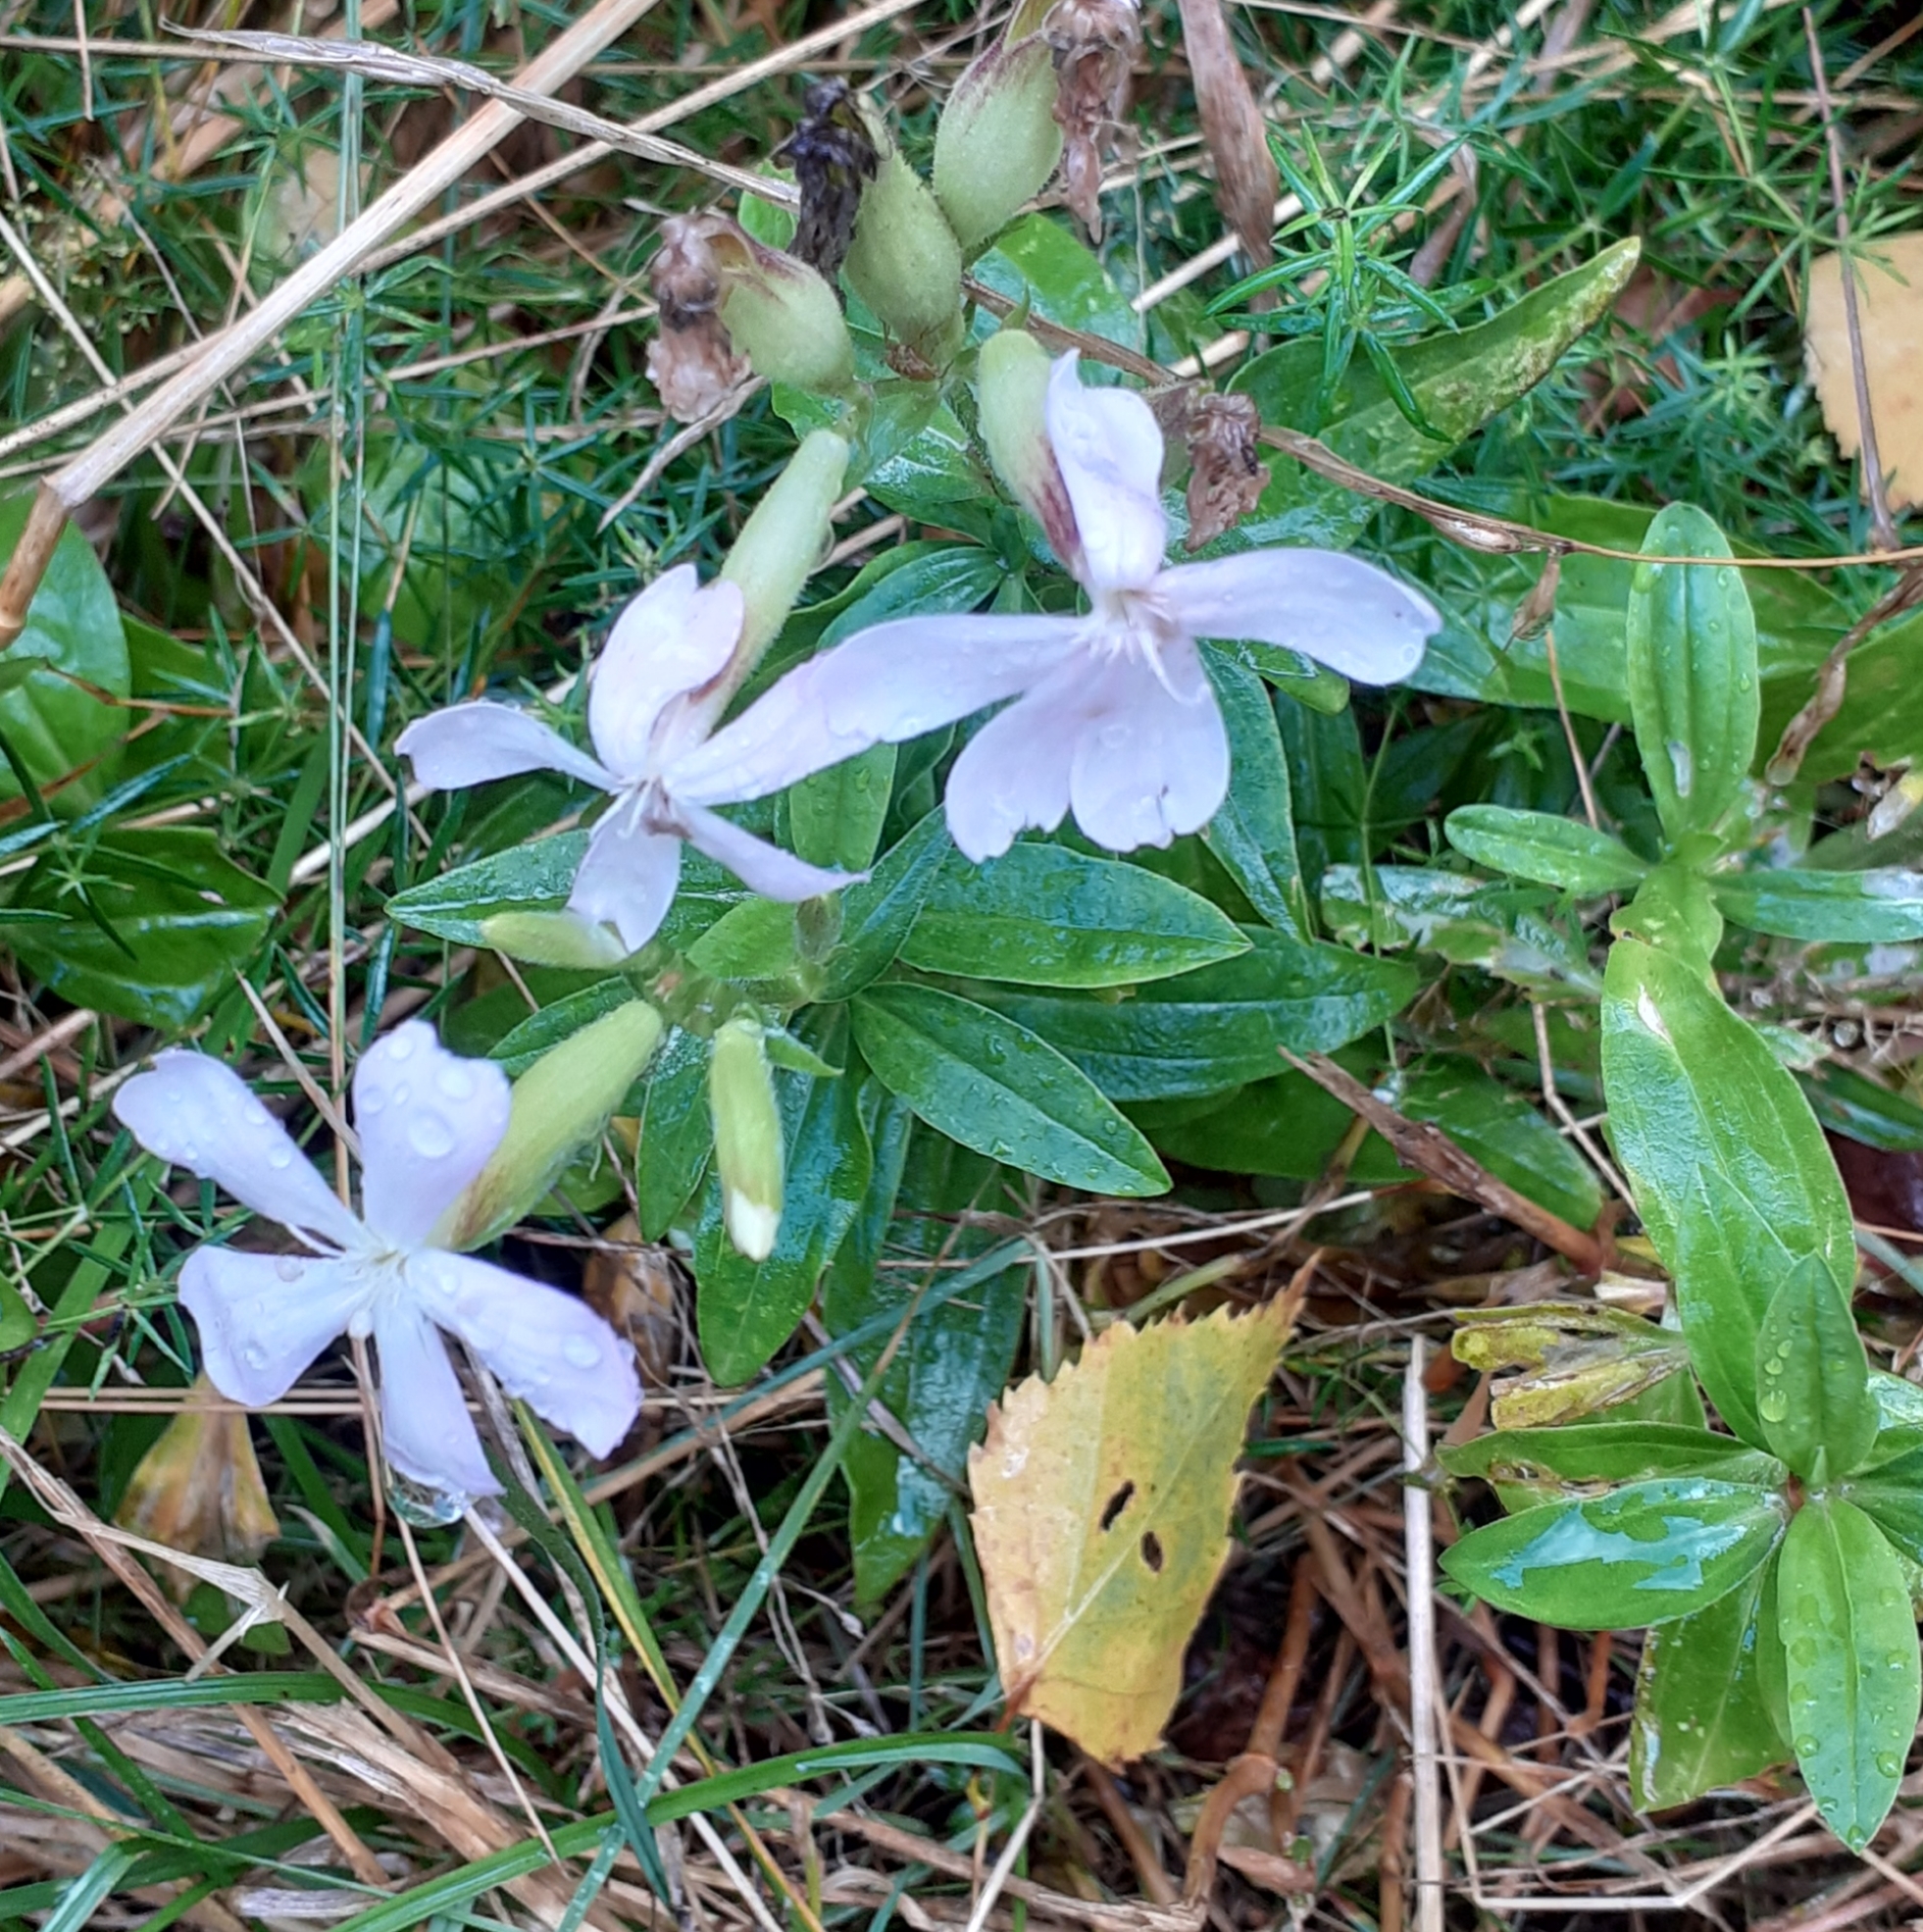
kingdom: Plantae
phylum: Tracheophyta
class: Magnoliopsida
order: Caryophyllales
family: Caryophyllaceae
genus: Saponaria
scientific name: Saponaria officinalis
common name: Soapwort
